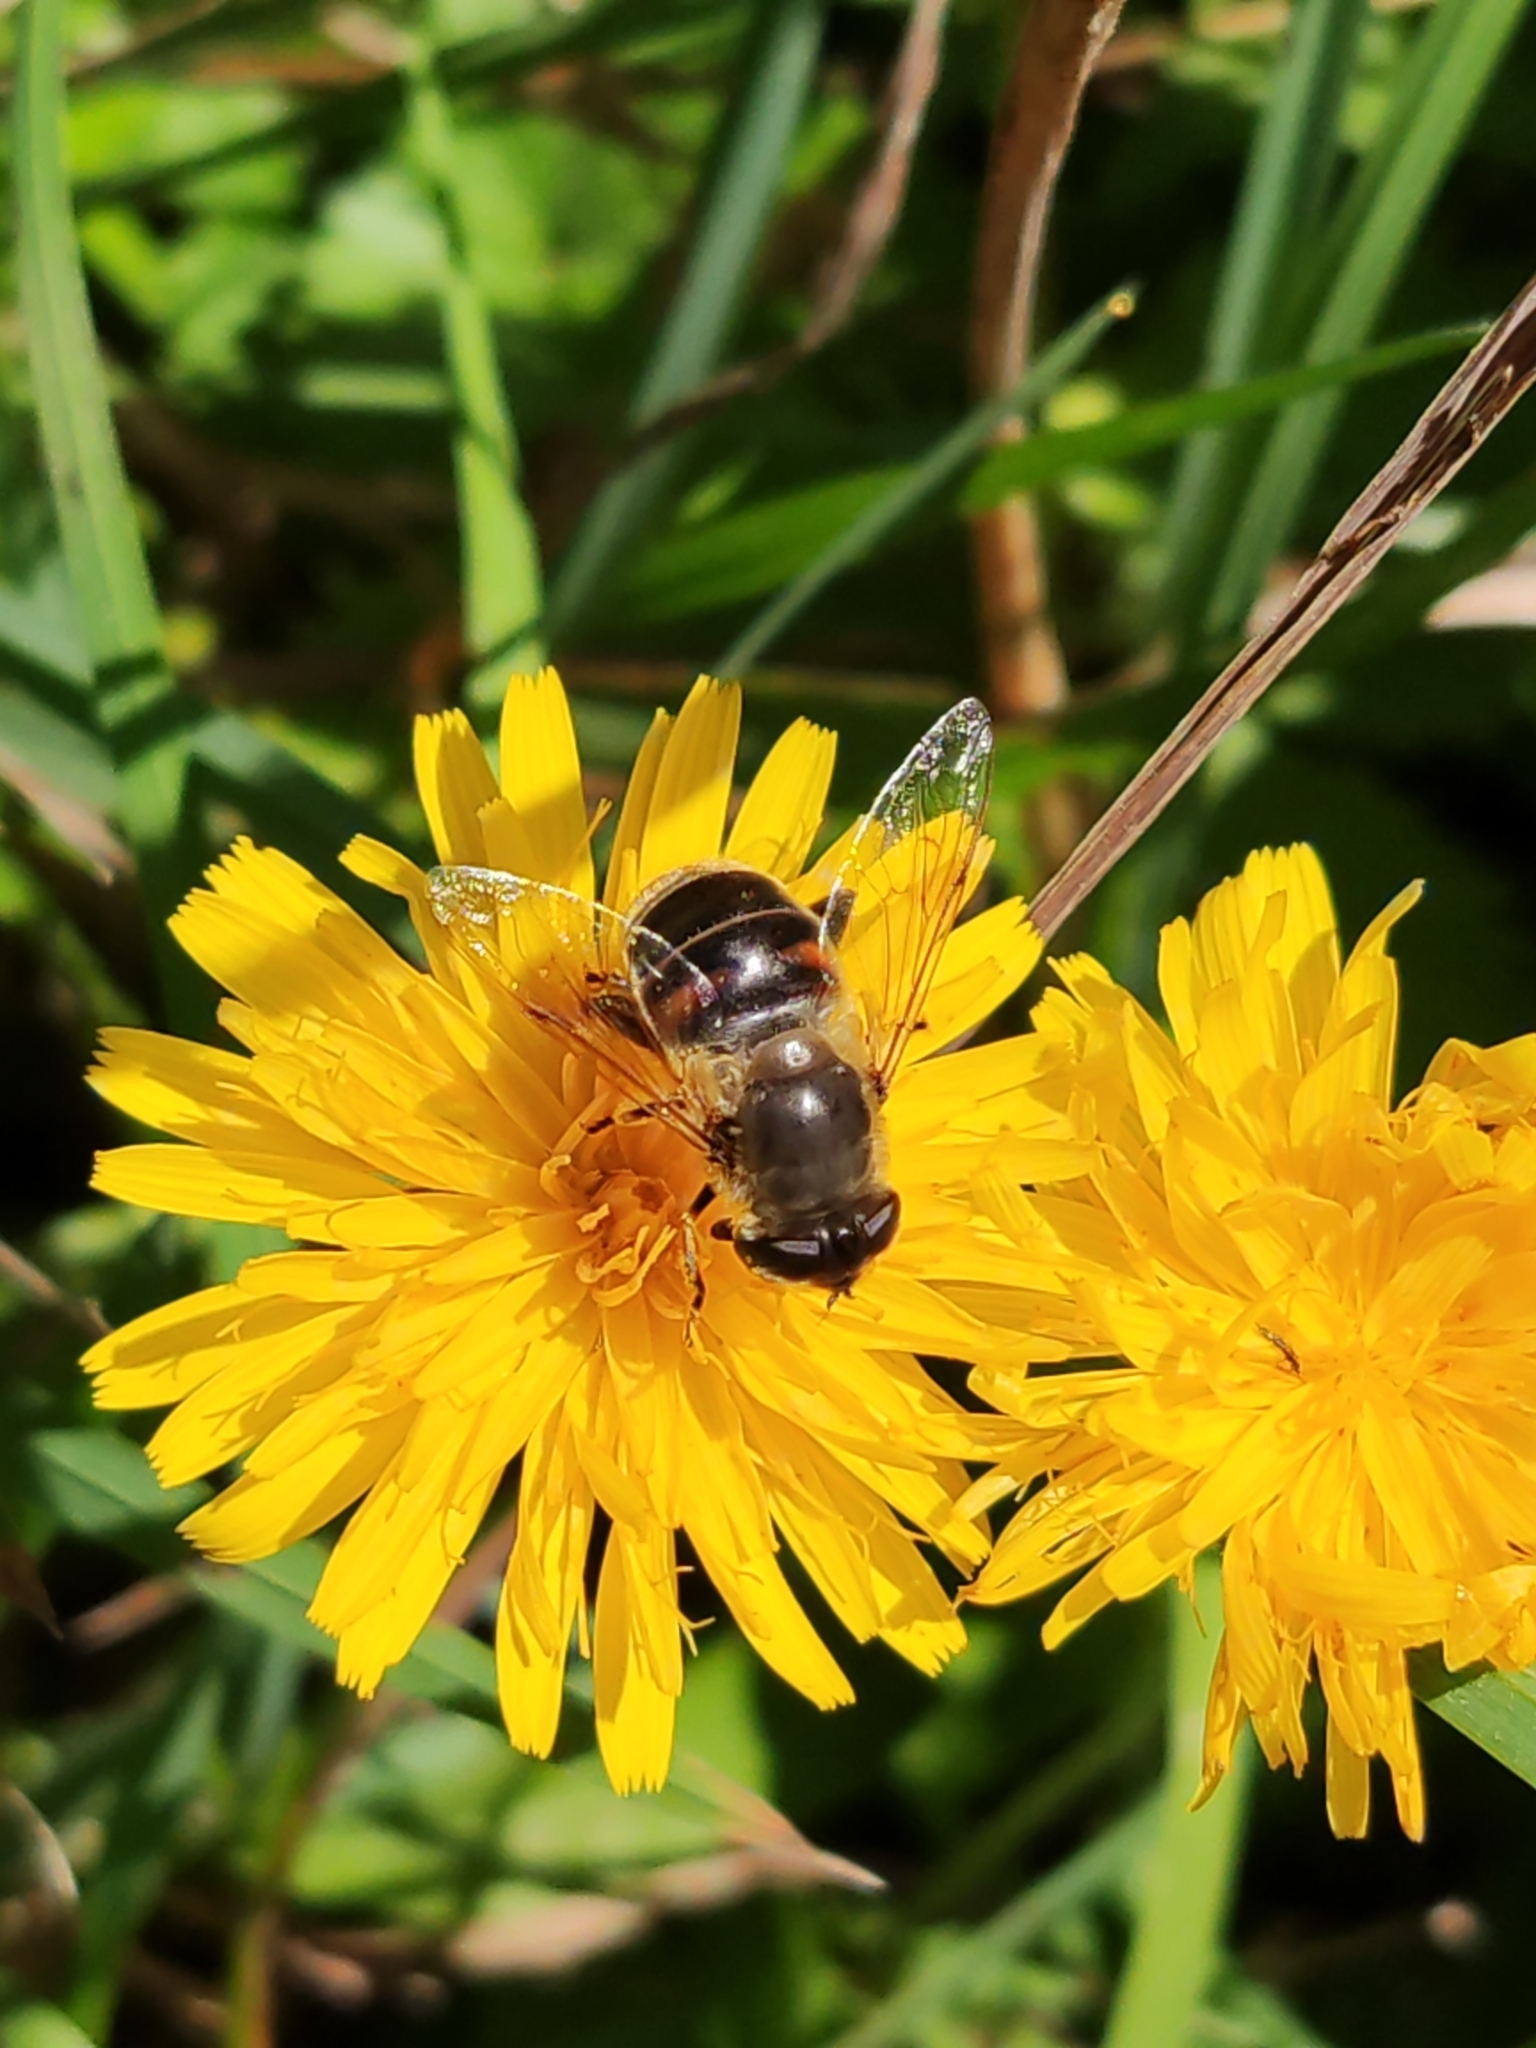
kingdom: Animalia
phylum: Arthropoda
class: Insecta
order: Diptera
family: Syrphidae
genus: Eristalis
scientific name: Eristalis tenax
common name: Drone fly
